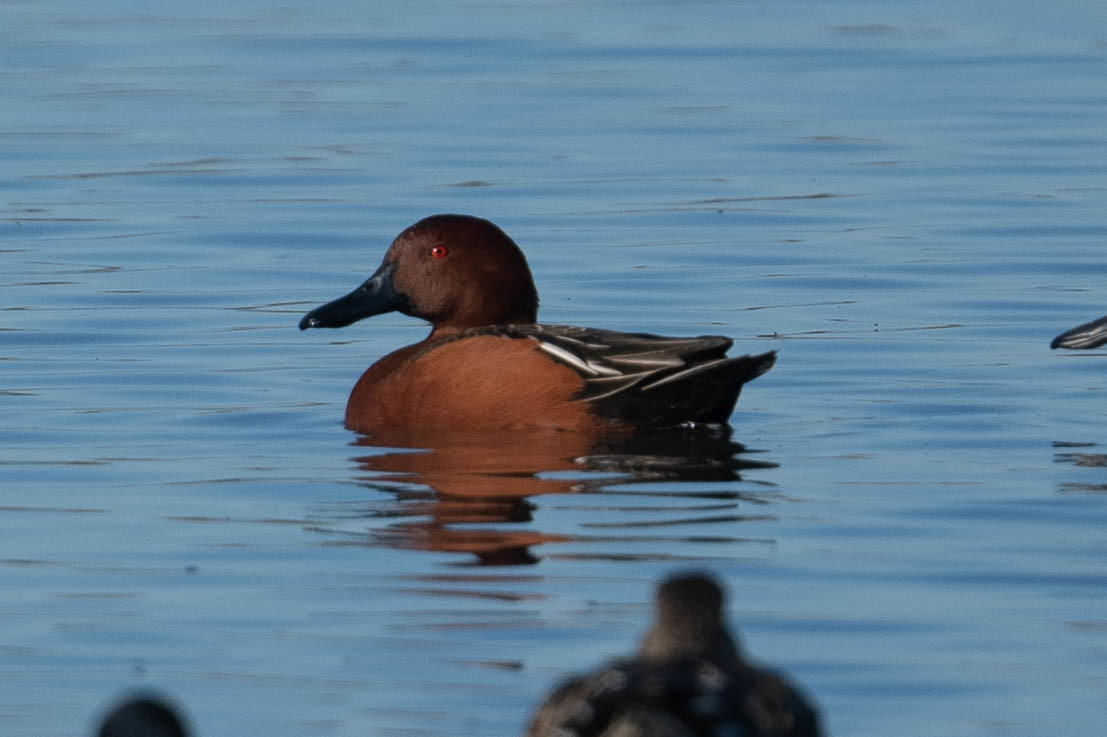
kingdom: Animalia
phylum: Chordata
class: Aves
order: Anseriformes
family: Anatidae
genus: Spatula
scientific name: Spatula cyanoptera
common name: Cinnamon teal
